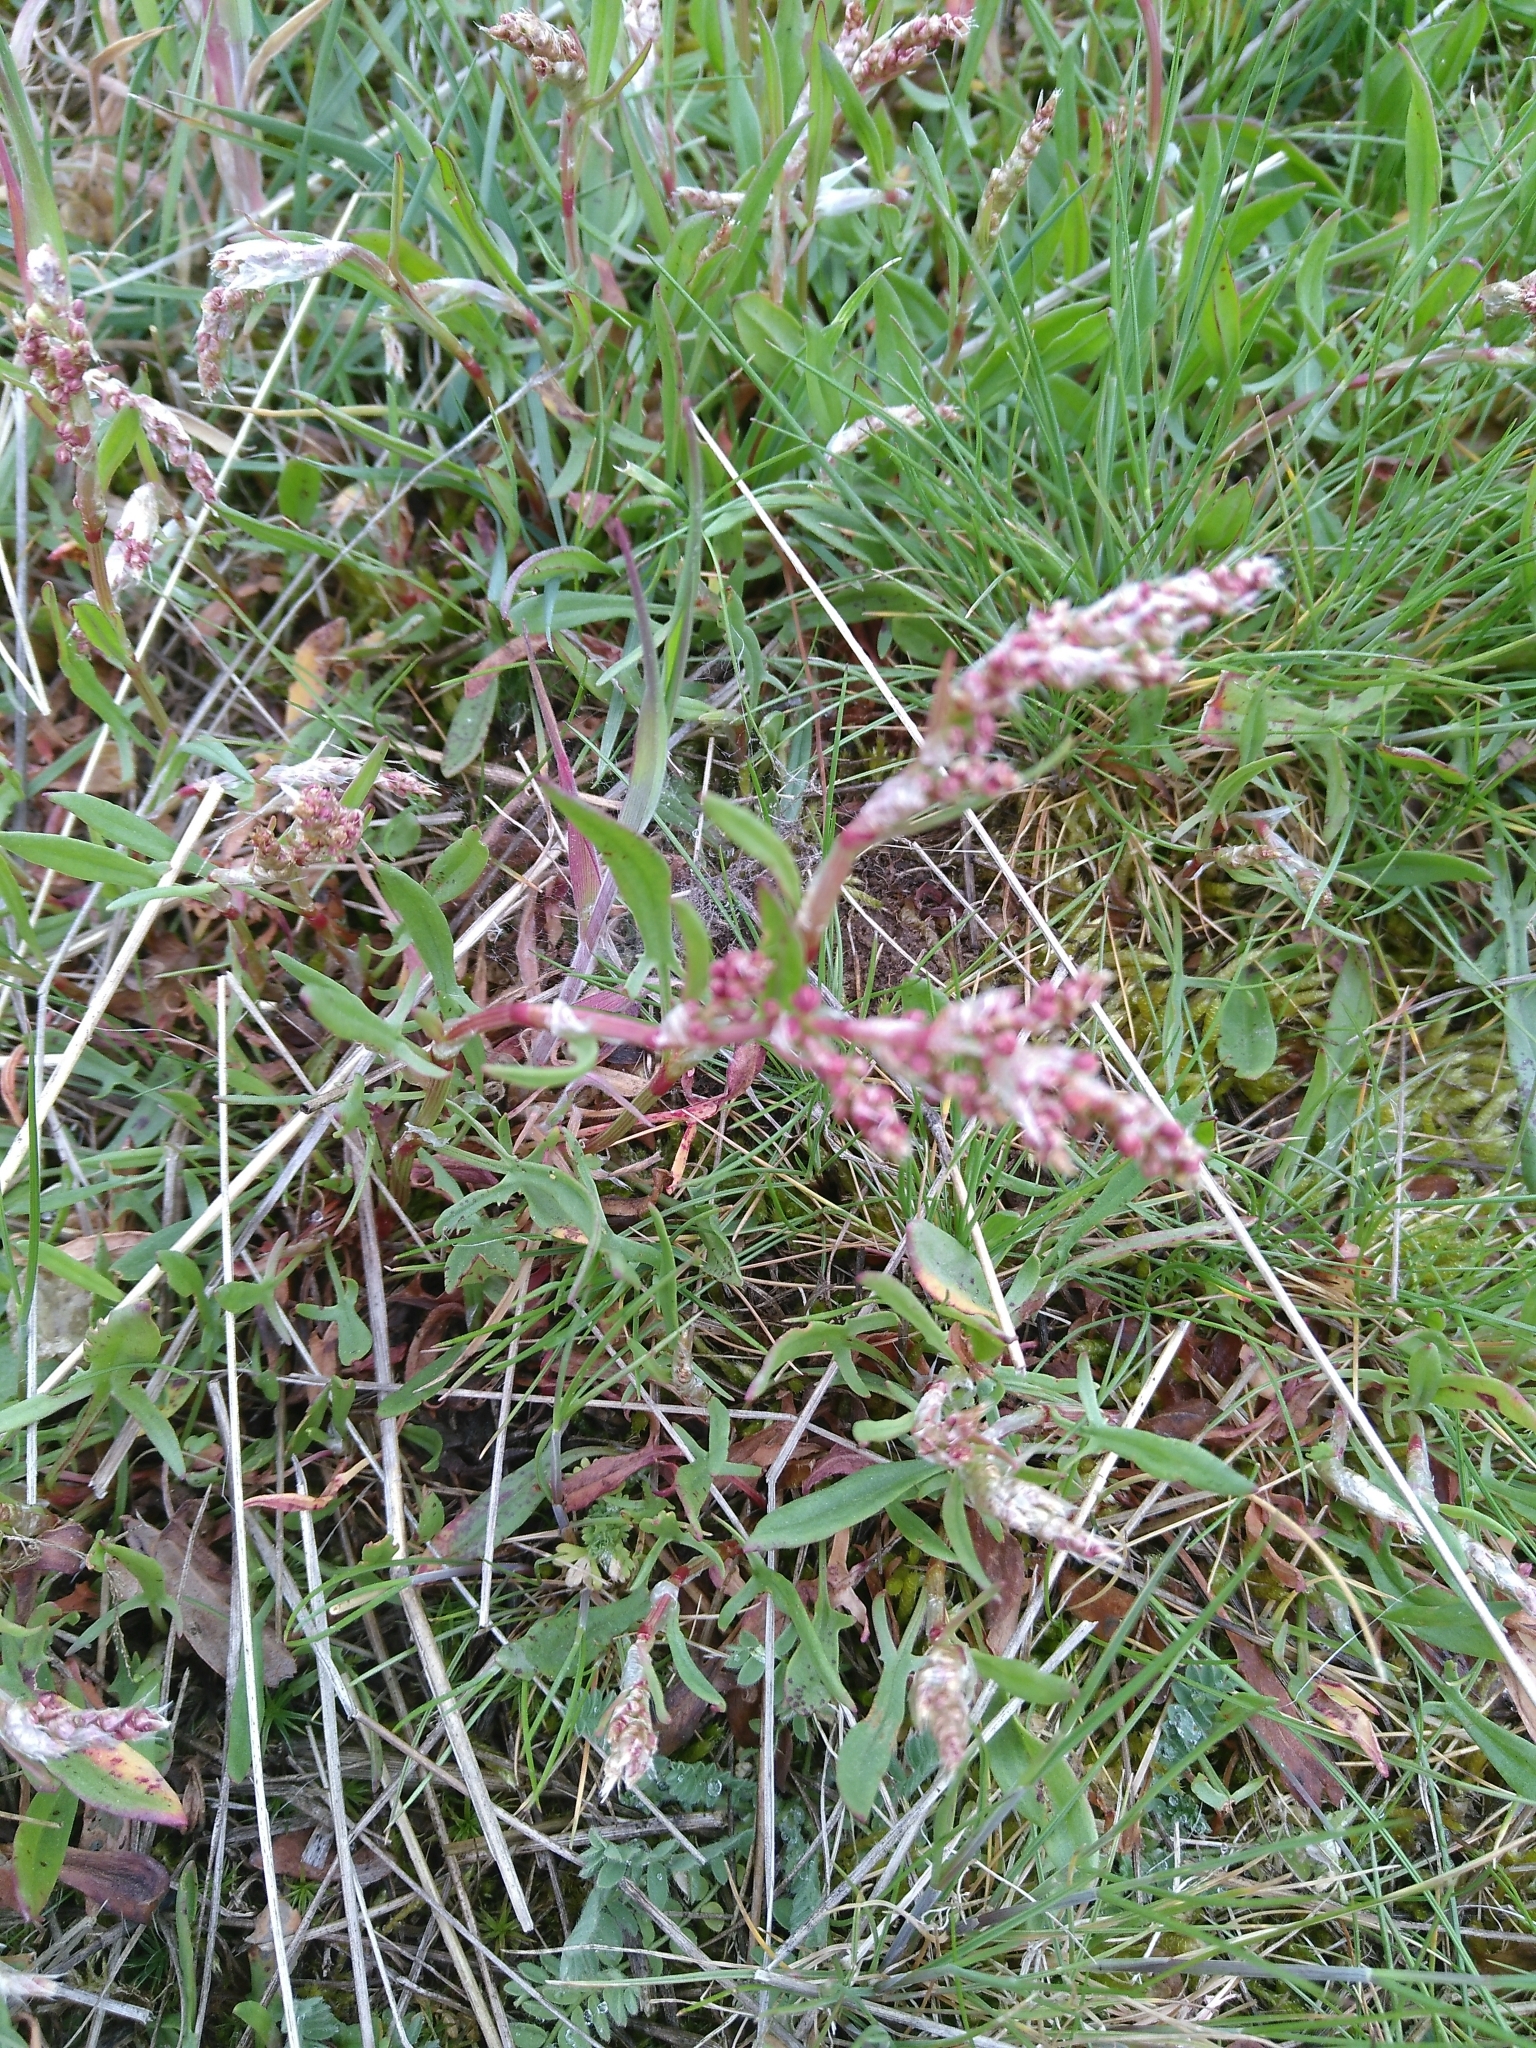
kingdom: Plantae
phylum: Tracheophyta
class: Magnoliopsida
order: Caryophyllales
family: Polygonaceae
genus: Rumex
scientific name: Rumex acetosella
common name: Common sheep sorrel
